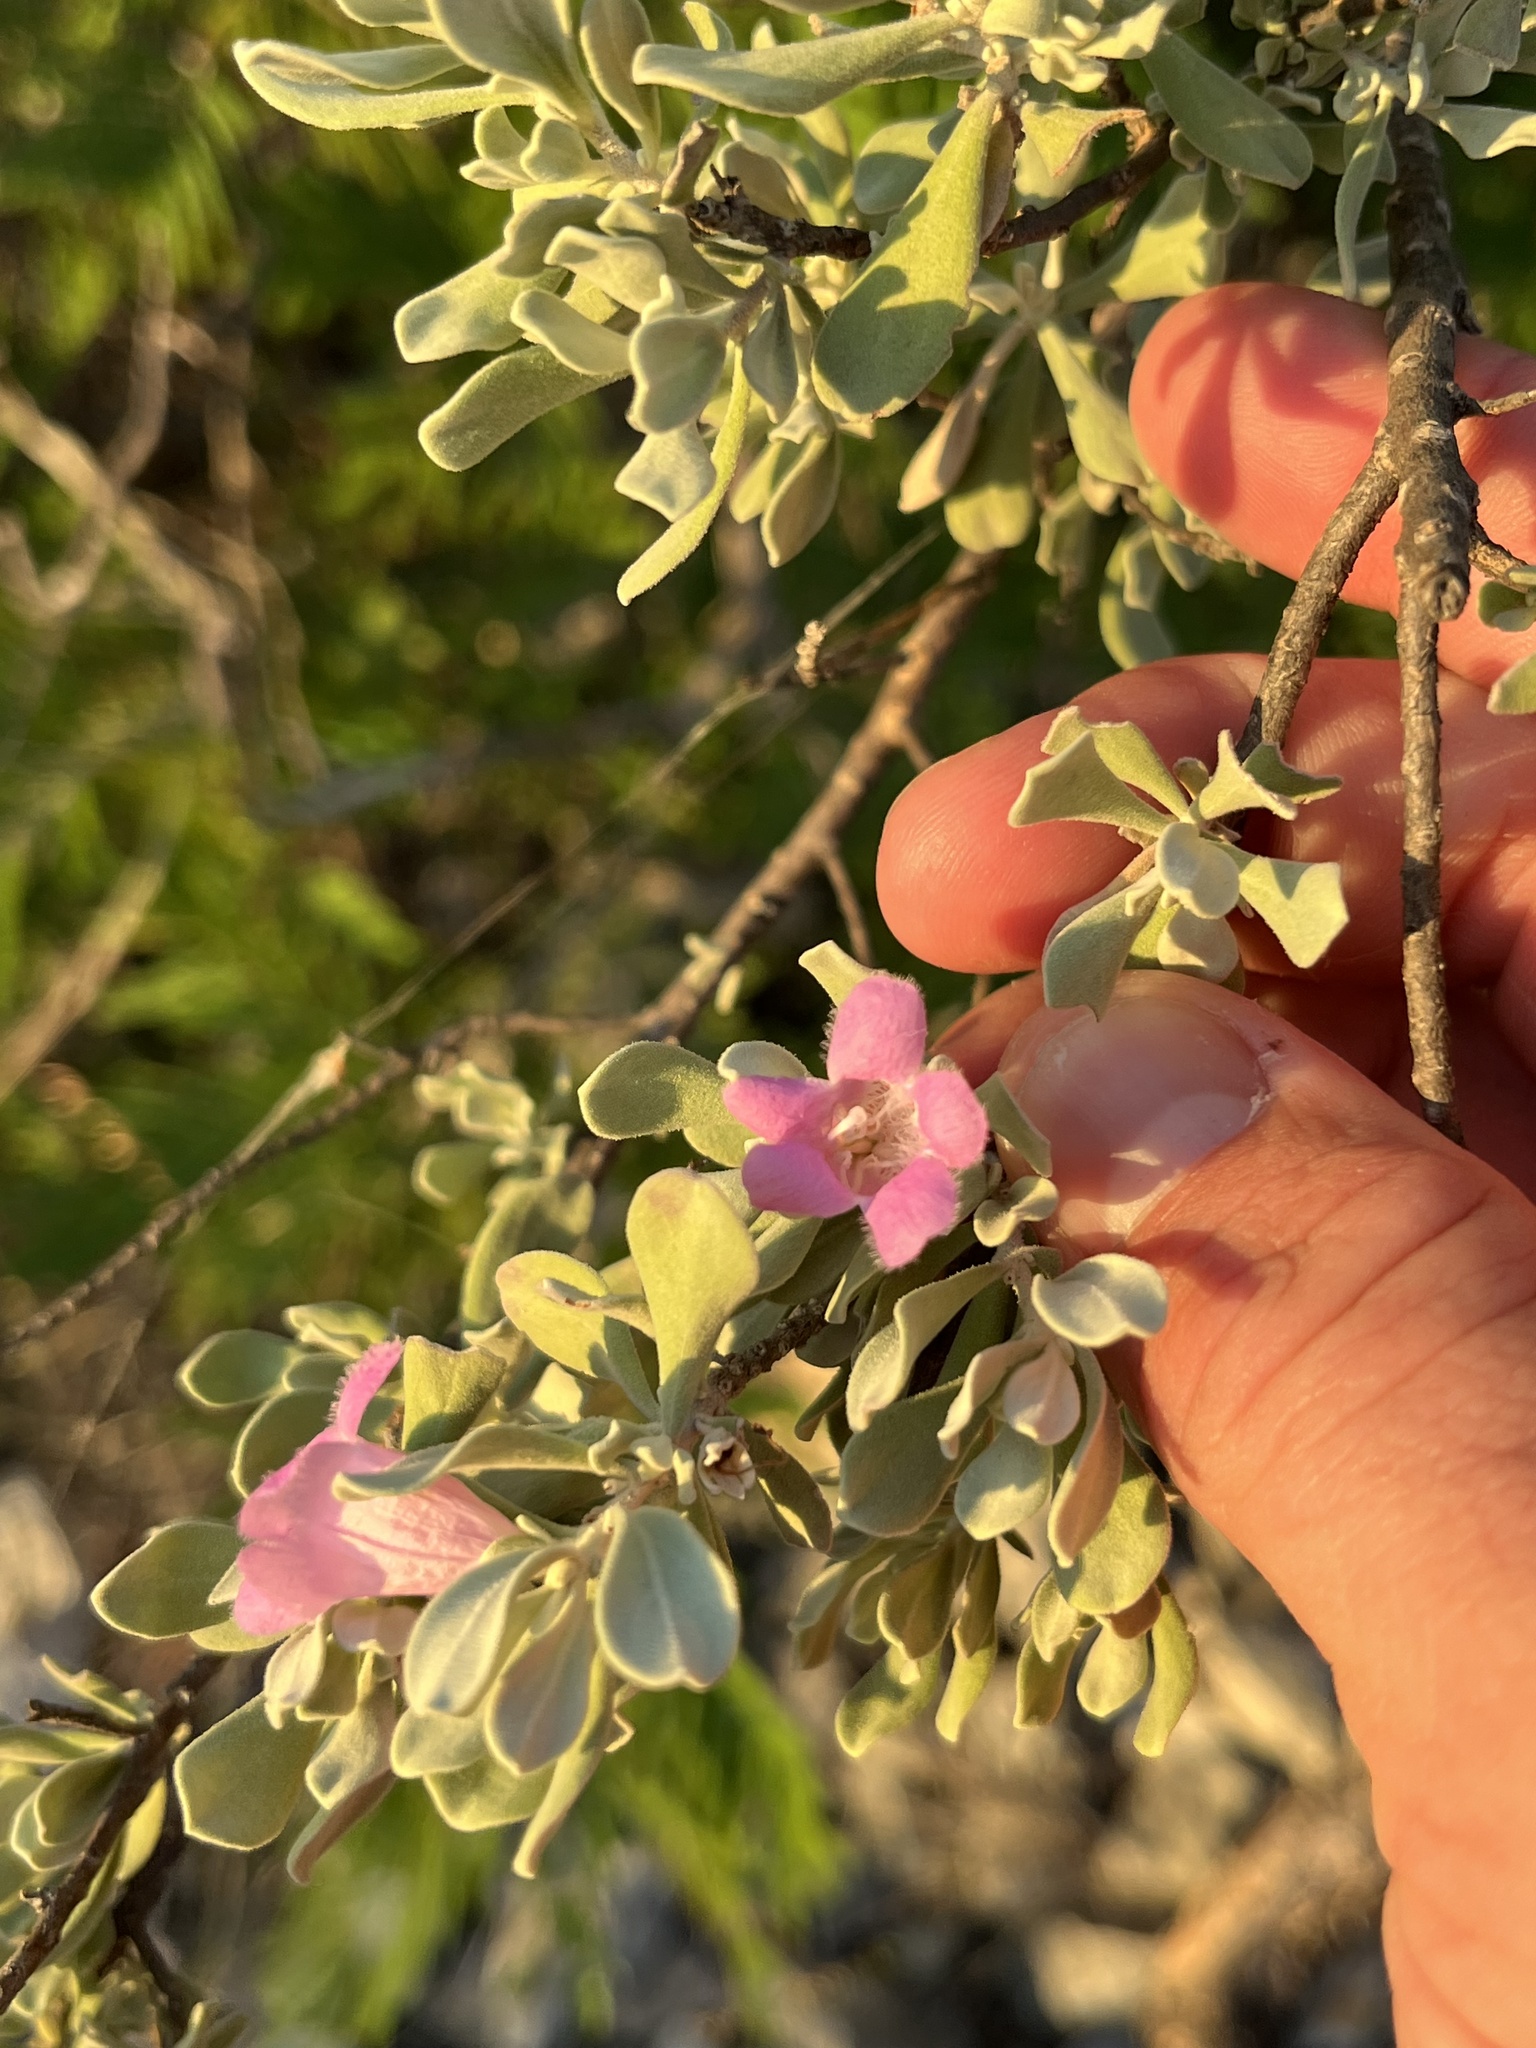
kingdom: Plantae
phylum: Tracheophyta
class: Magnoliopsida
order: Lamiales
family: Scrophulariaceae
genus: Leucophyllum
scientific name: Leucophyllum frutescens
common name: Texas silverleaf
